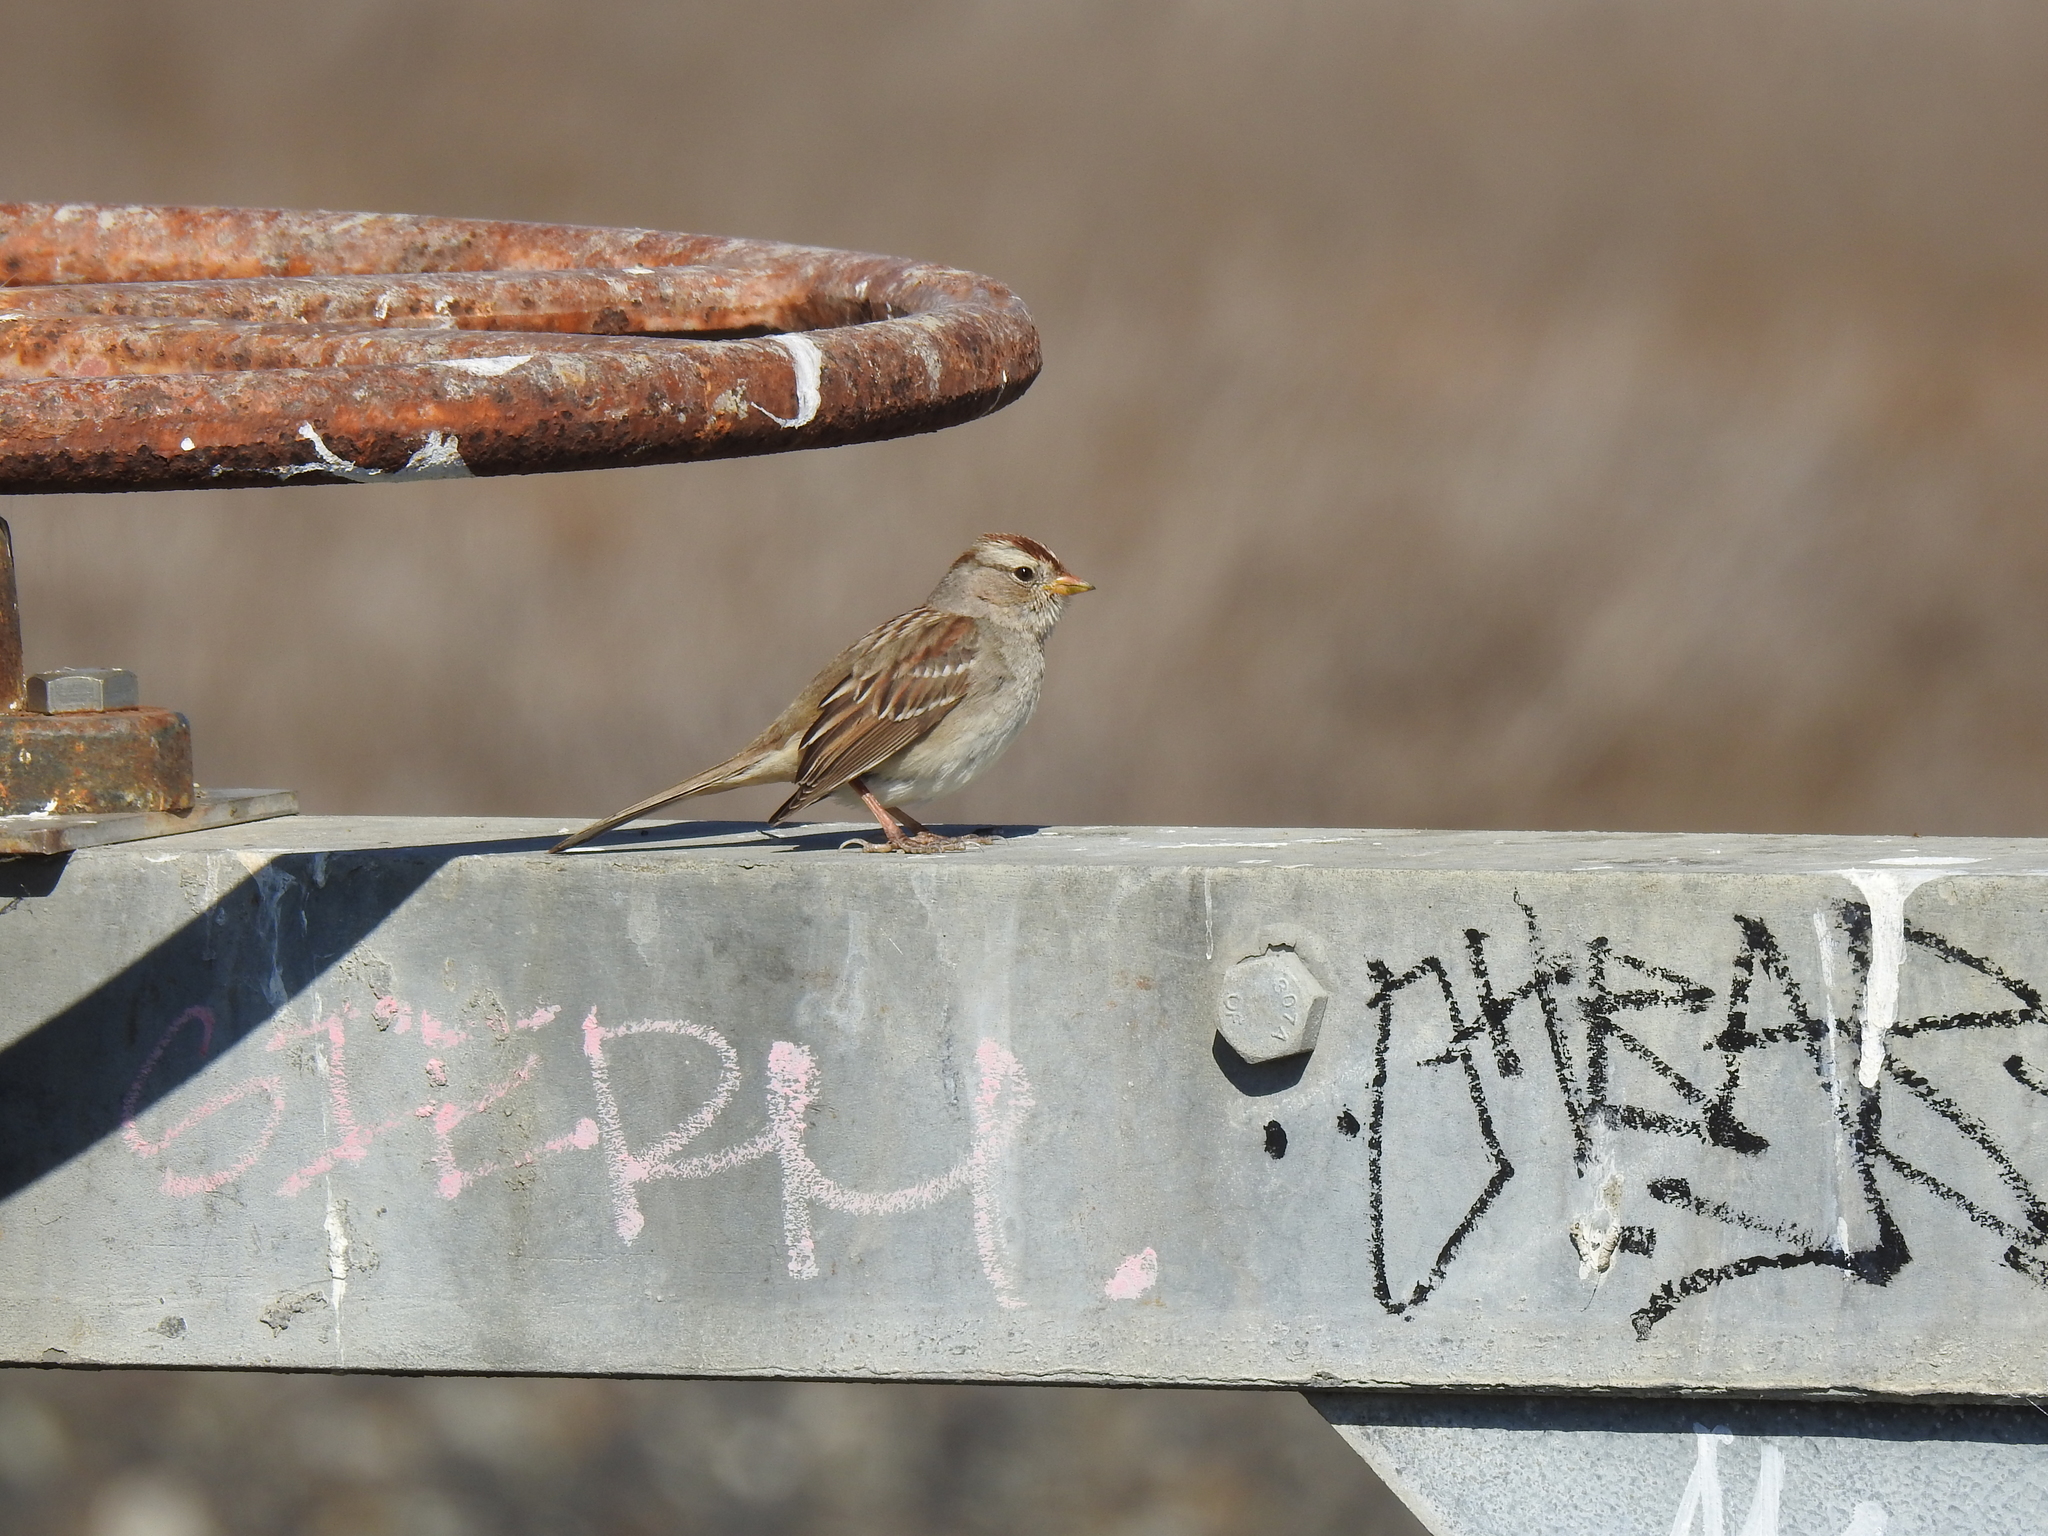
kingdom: Animalia
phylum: Chordata
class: Aves
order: Passeriformes
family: Passerellidae
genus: Zonotrichia
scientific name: Zonotrichia leucophrys
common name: White-crowned sparrow
